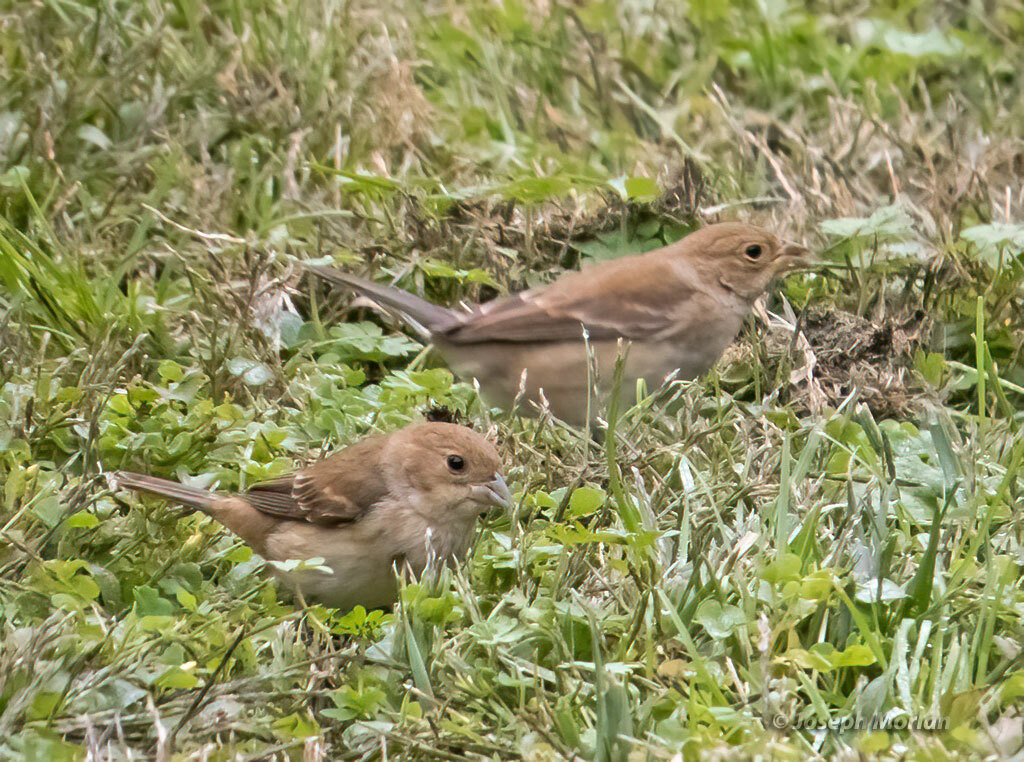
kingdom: Animalia
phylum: Chordata
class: Aves
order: Passeriformes
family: Cardinalidae
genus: Passerina
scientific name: Passerina cyanea
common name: Indigo bunting
